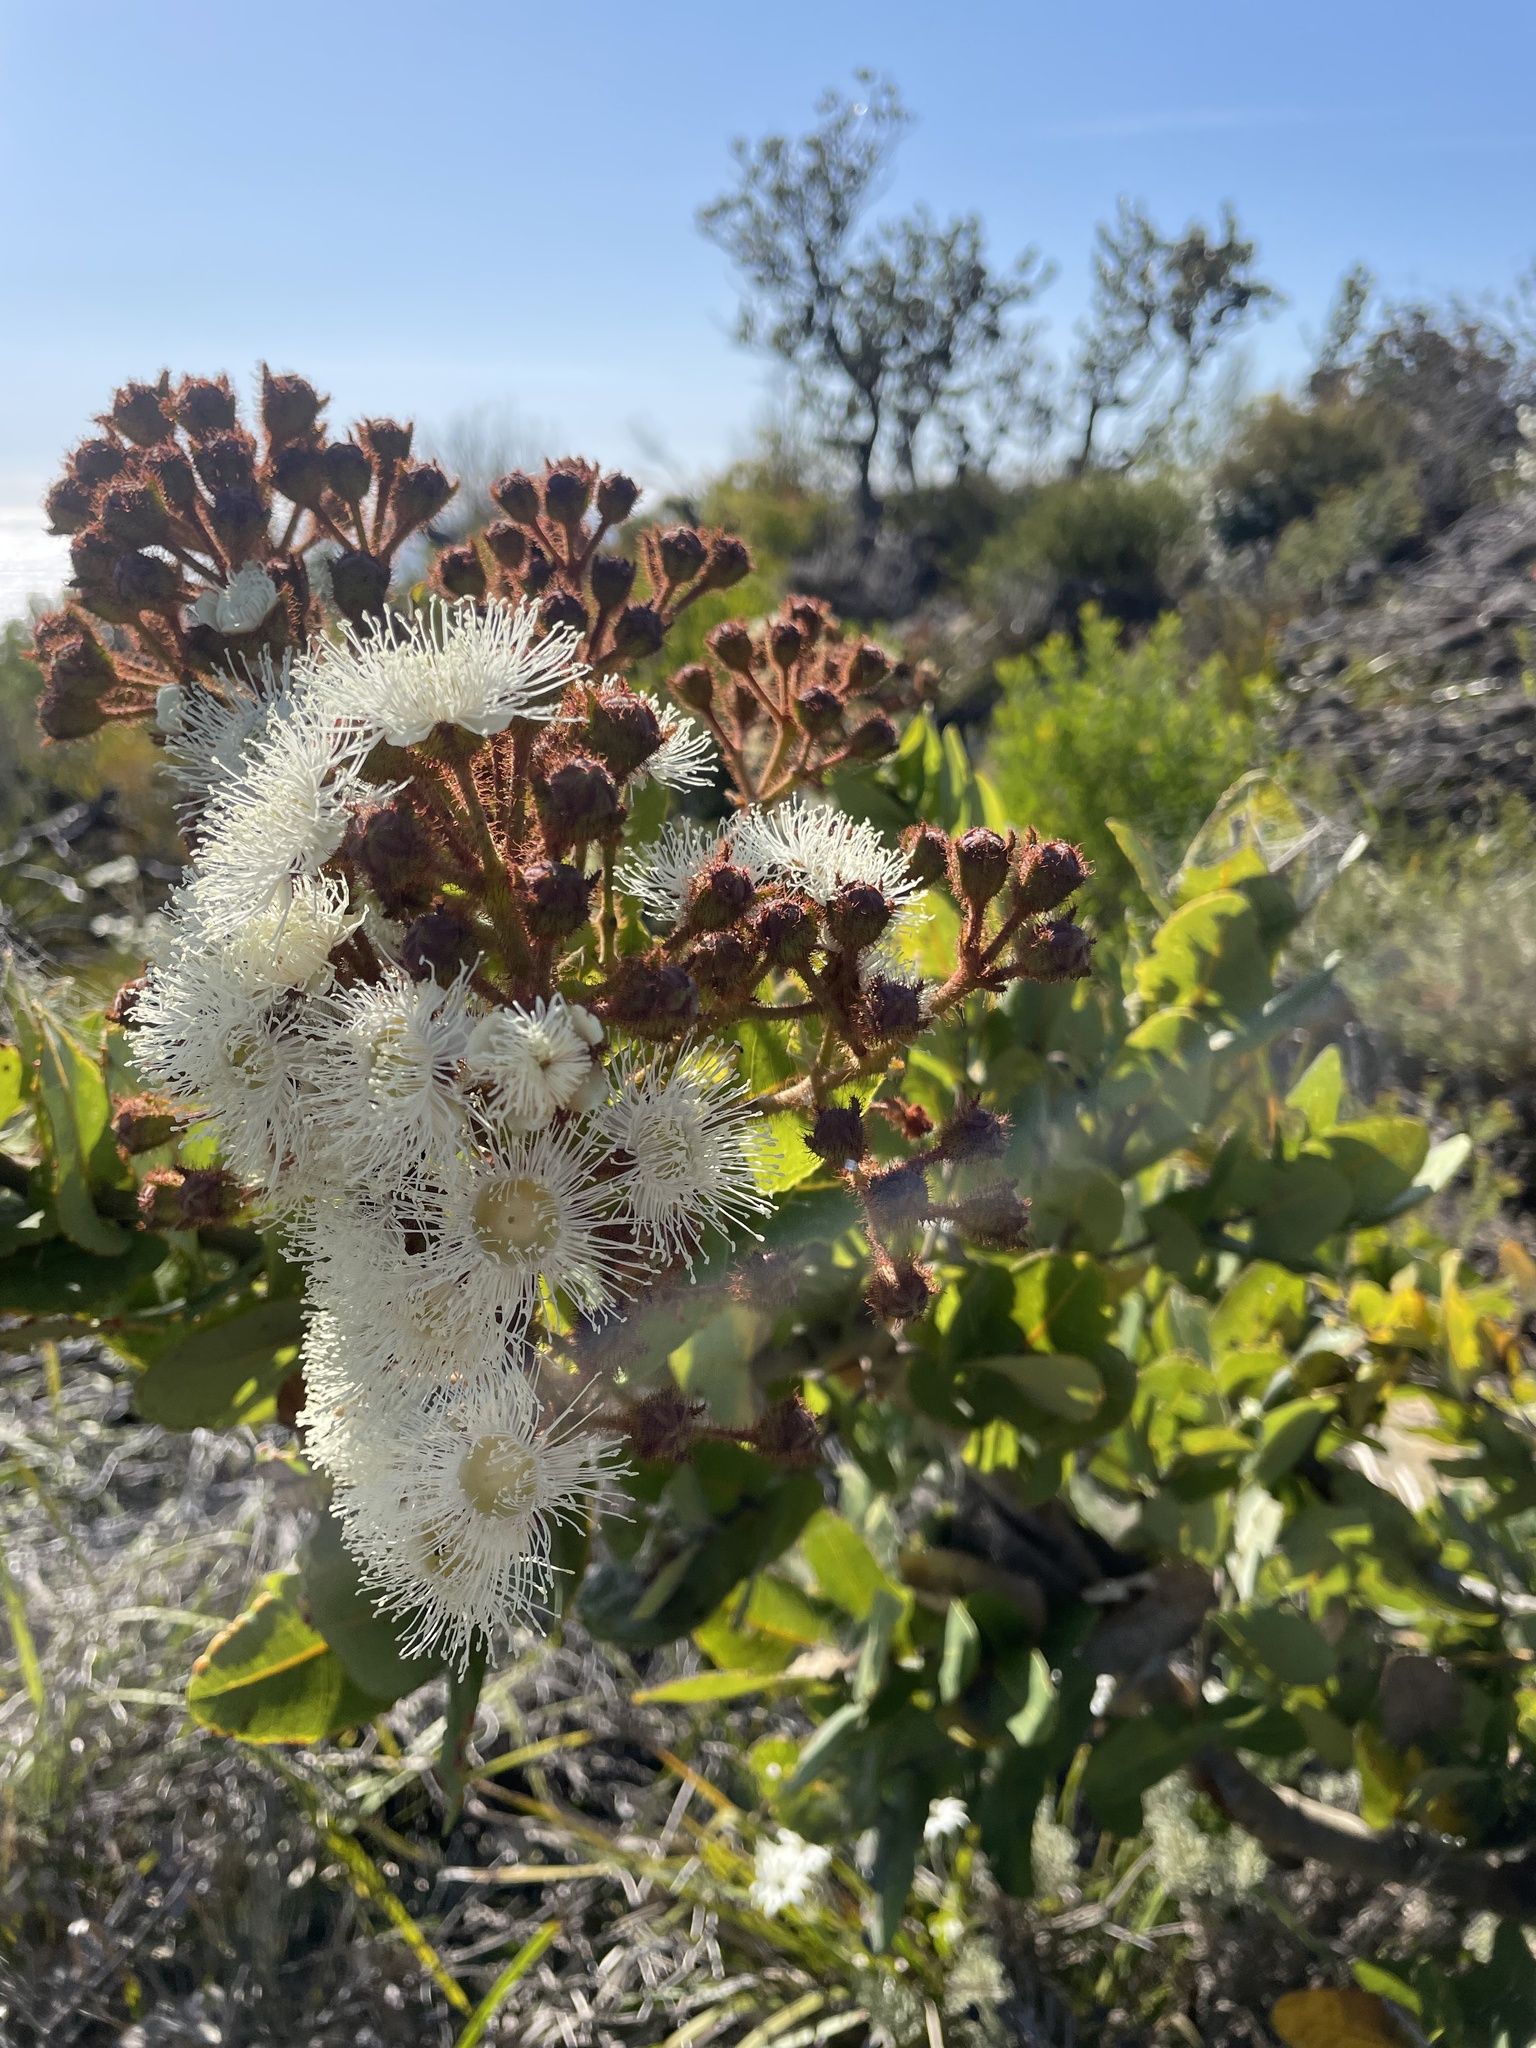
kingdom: Plantae
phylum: Tracheophyta
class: Magnoliopsida
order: Myrtales
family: Myrtaceae
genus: Angophora
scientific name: Angophora hispida
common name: Dwarf-apple
